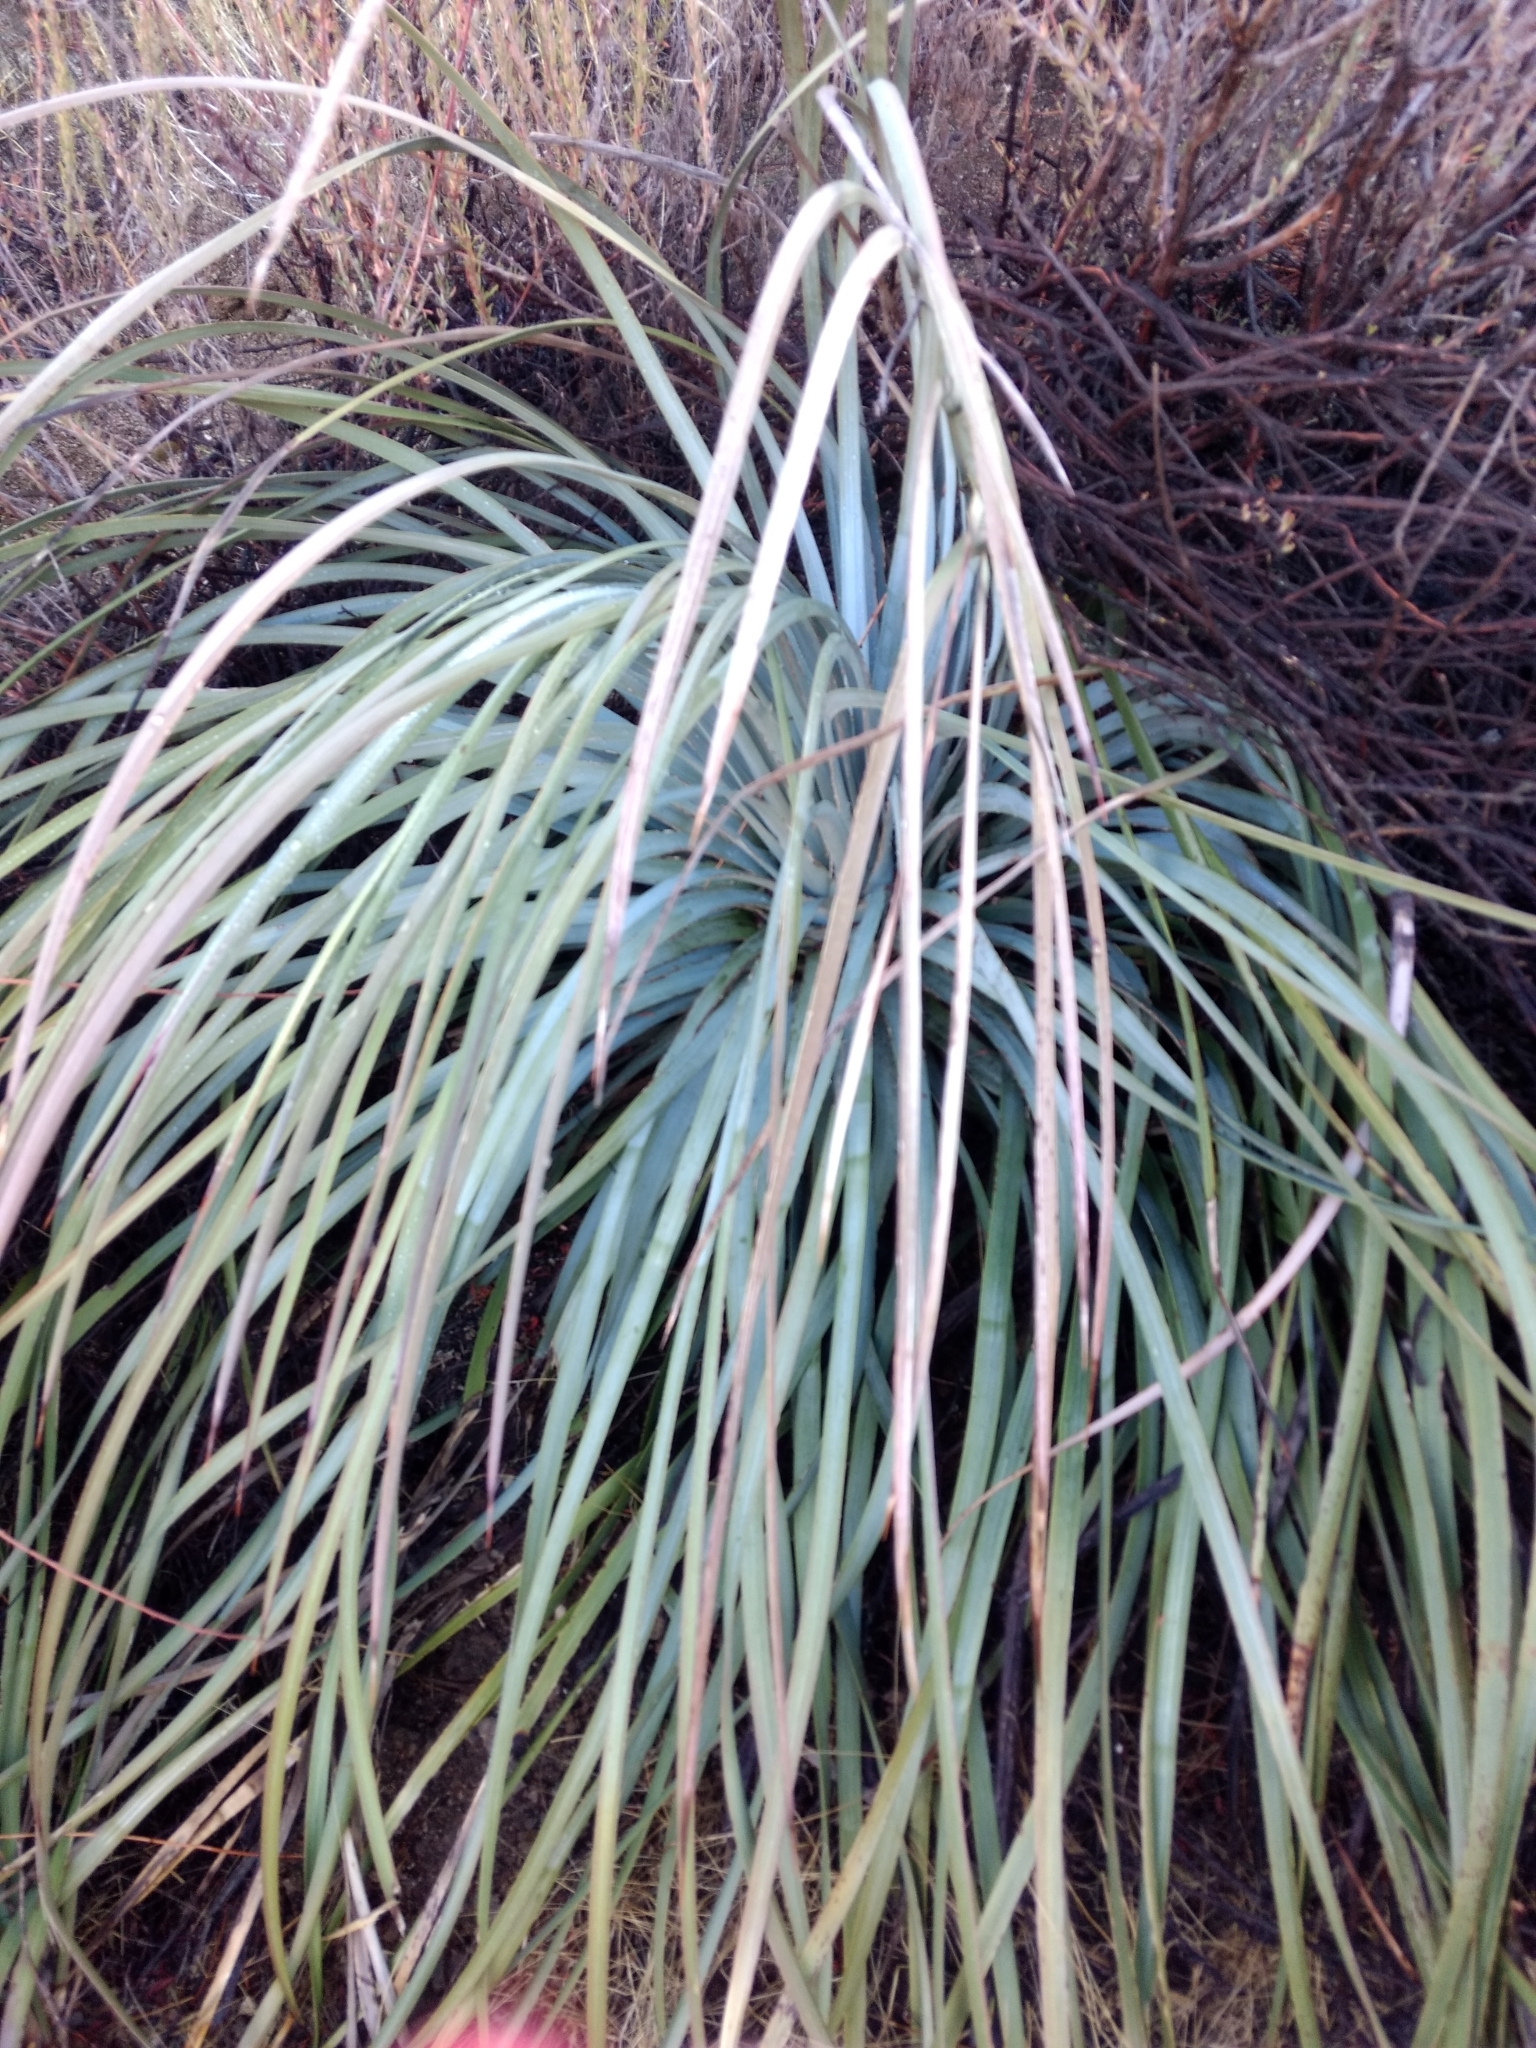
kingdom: Plantae
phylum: Tracheophyta
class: Liliopsida
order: Asparagales
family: Asparagaceae
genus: Hesperoyucca
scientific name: Hesperoyucca whipplei
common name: Our lord's-candle
